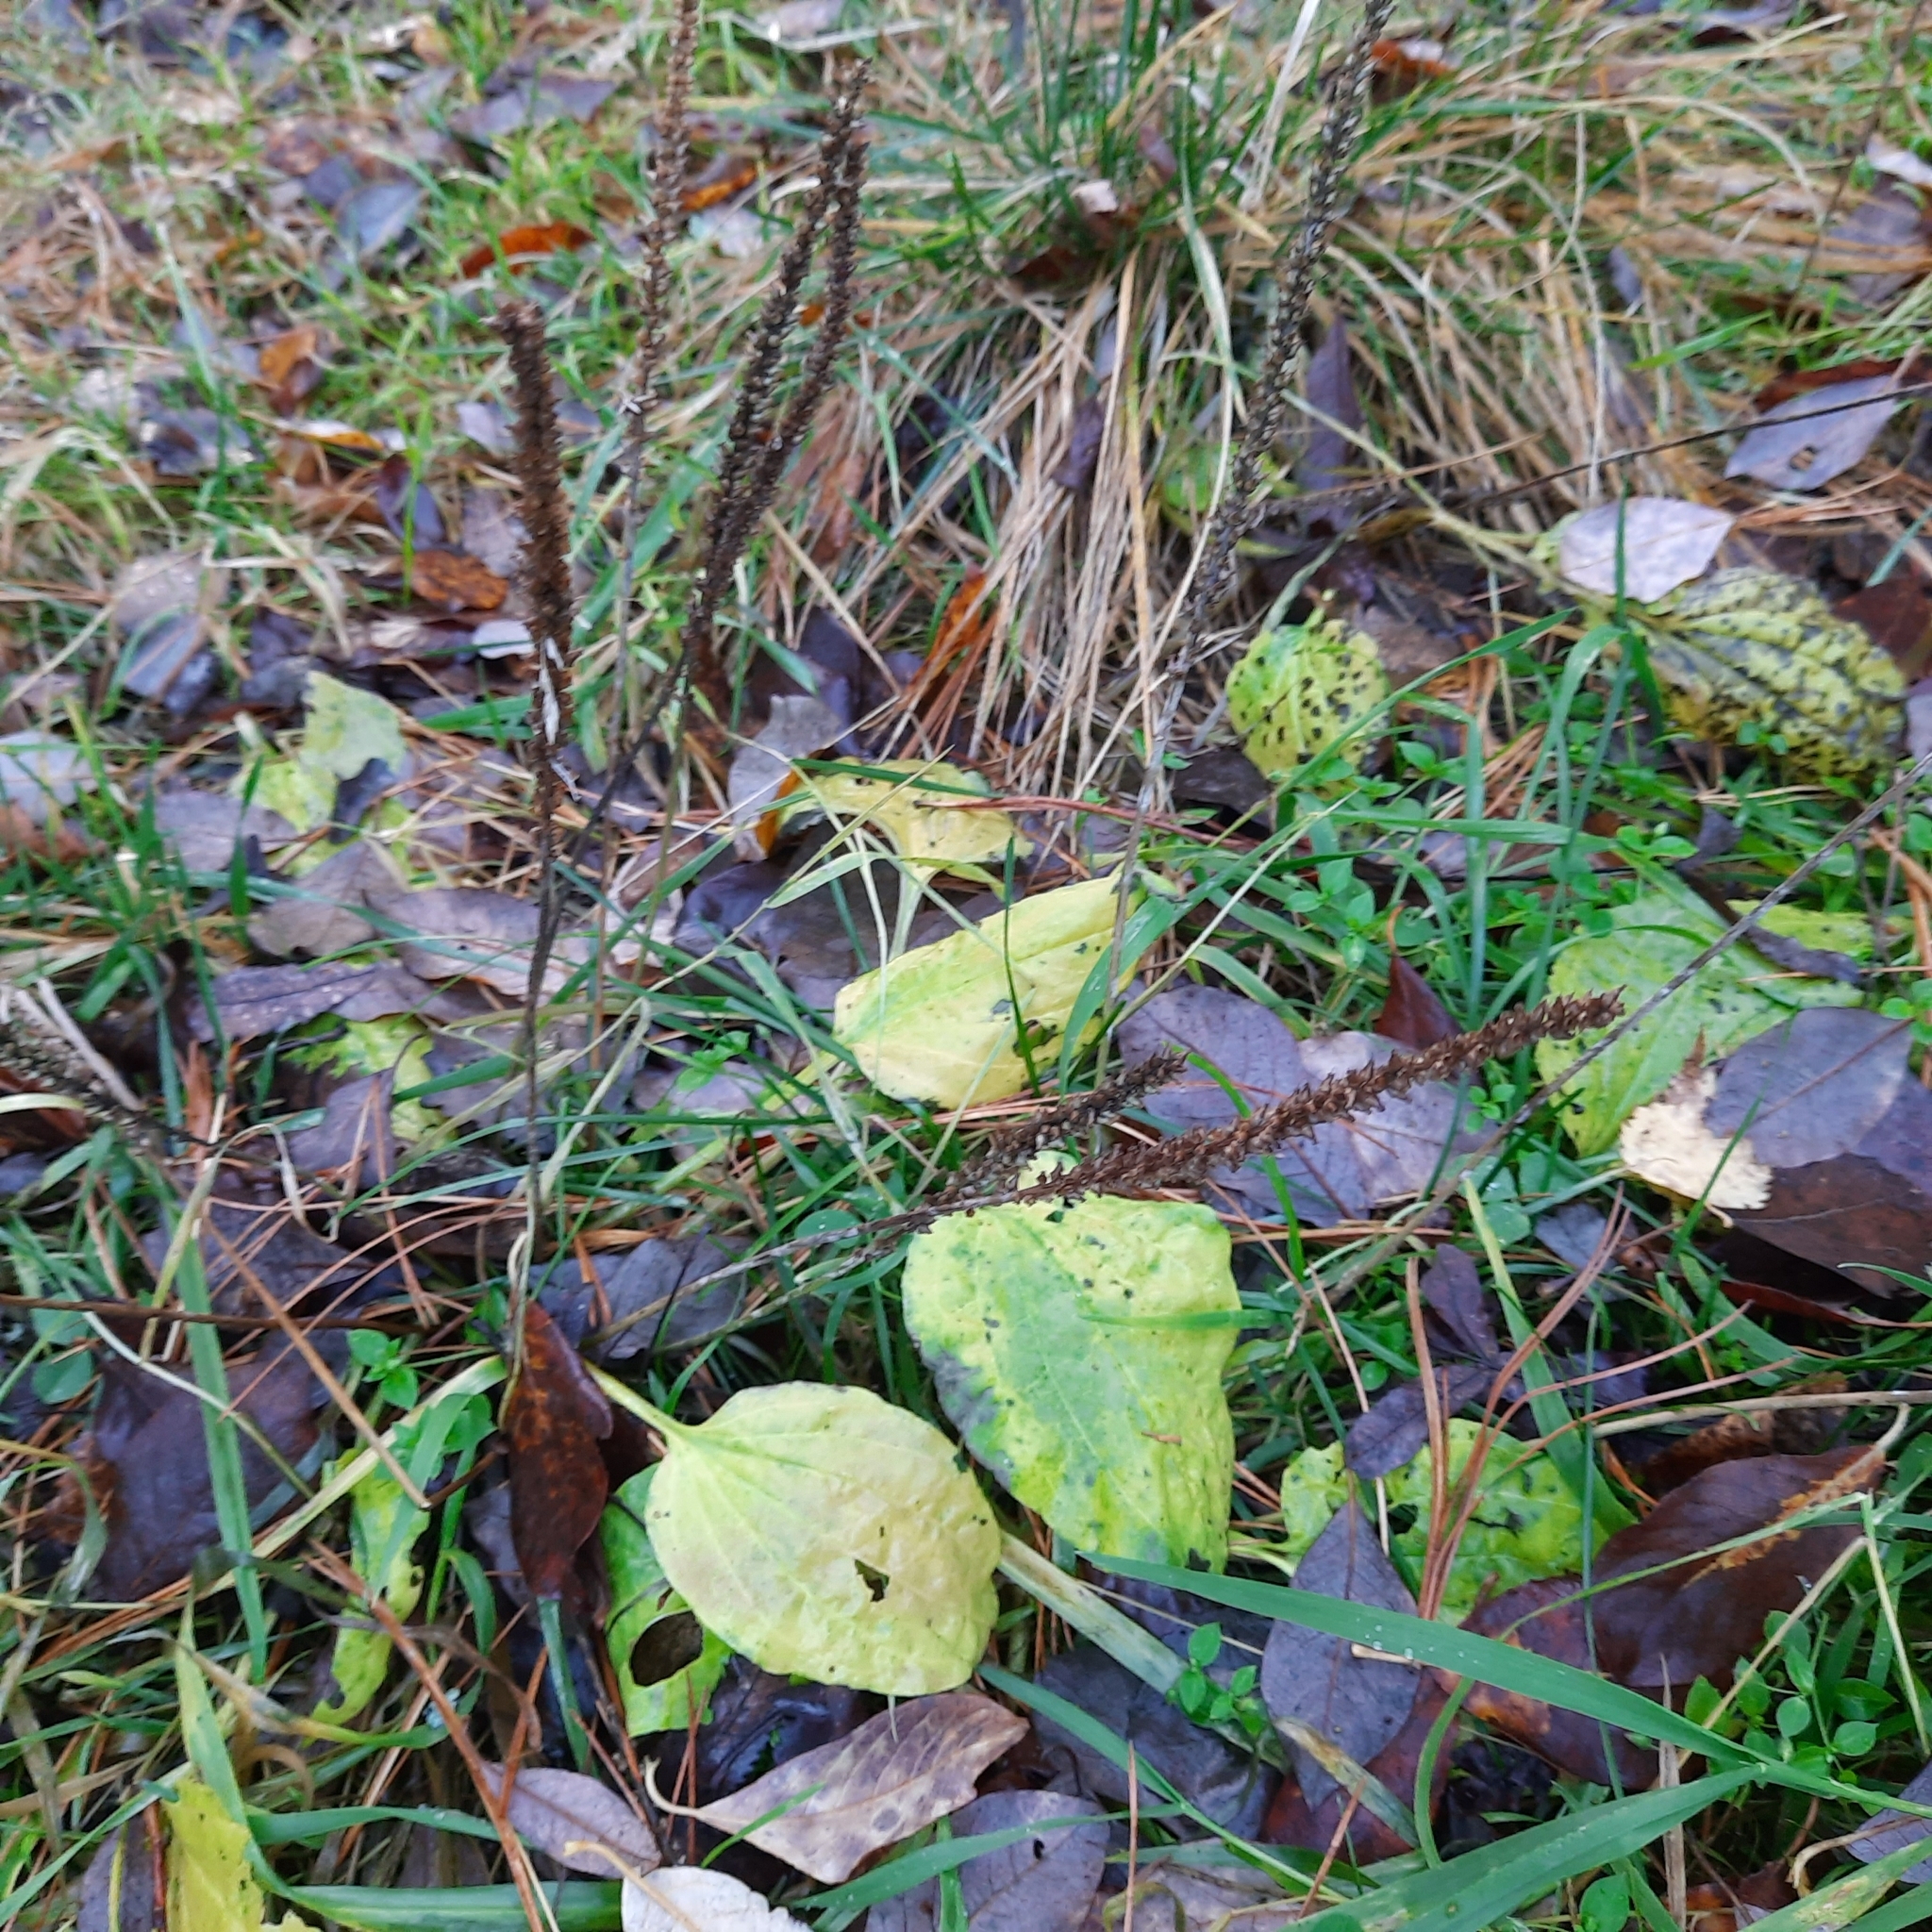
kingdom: Plantae
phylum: Tracheophyta
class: Magnoliopsida
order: Lamiales
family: Plantaginaceae
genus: Plantago
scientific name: Plantago major
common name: Common plantain
